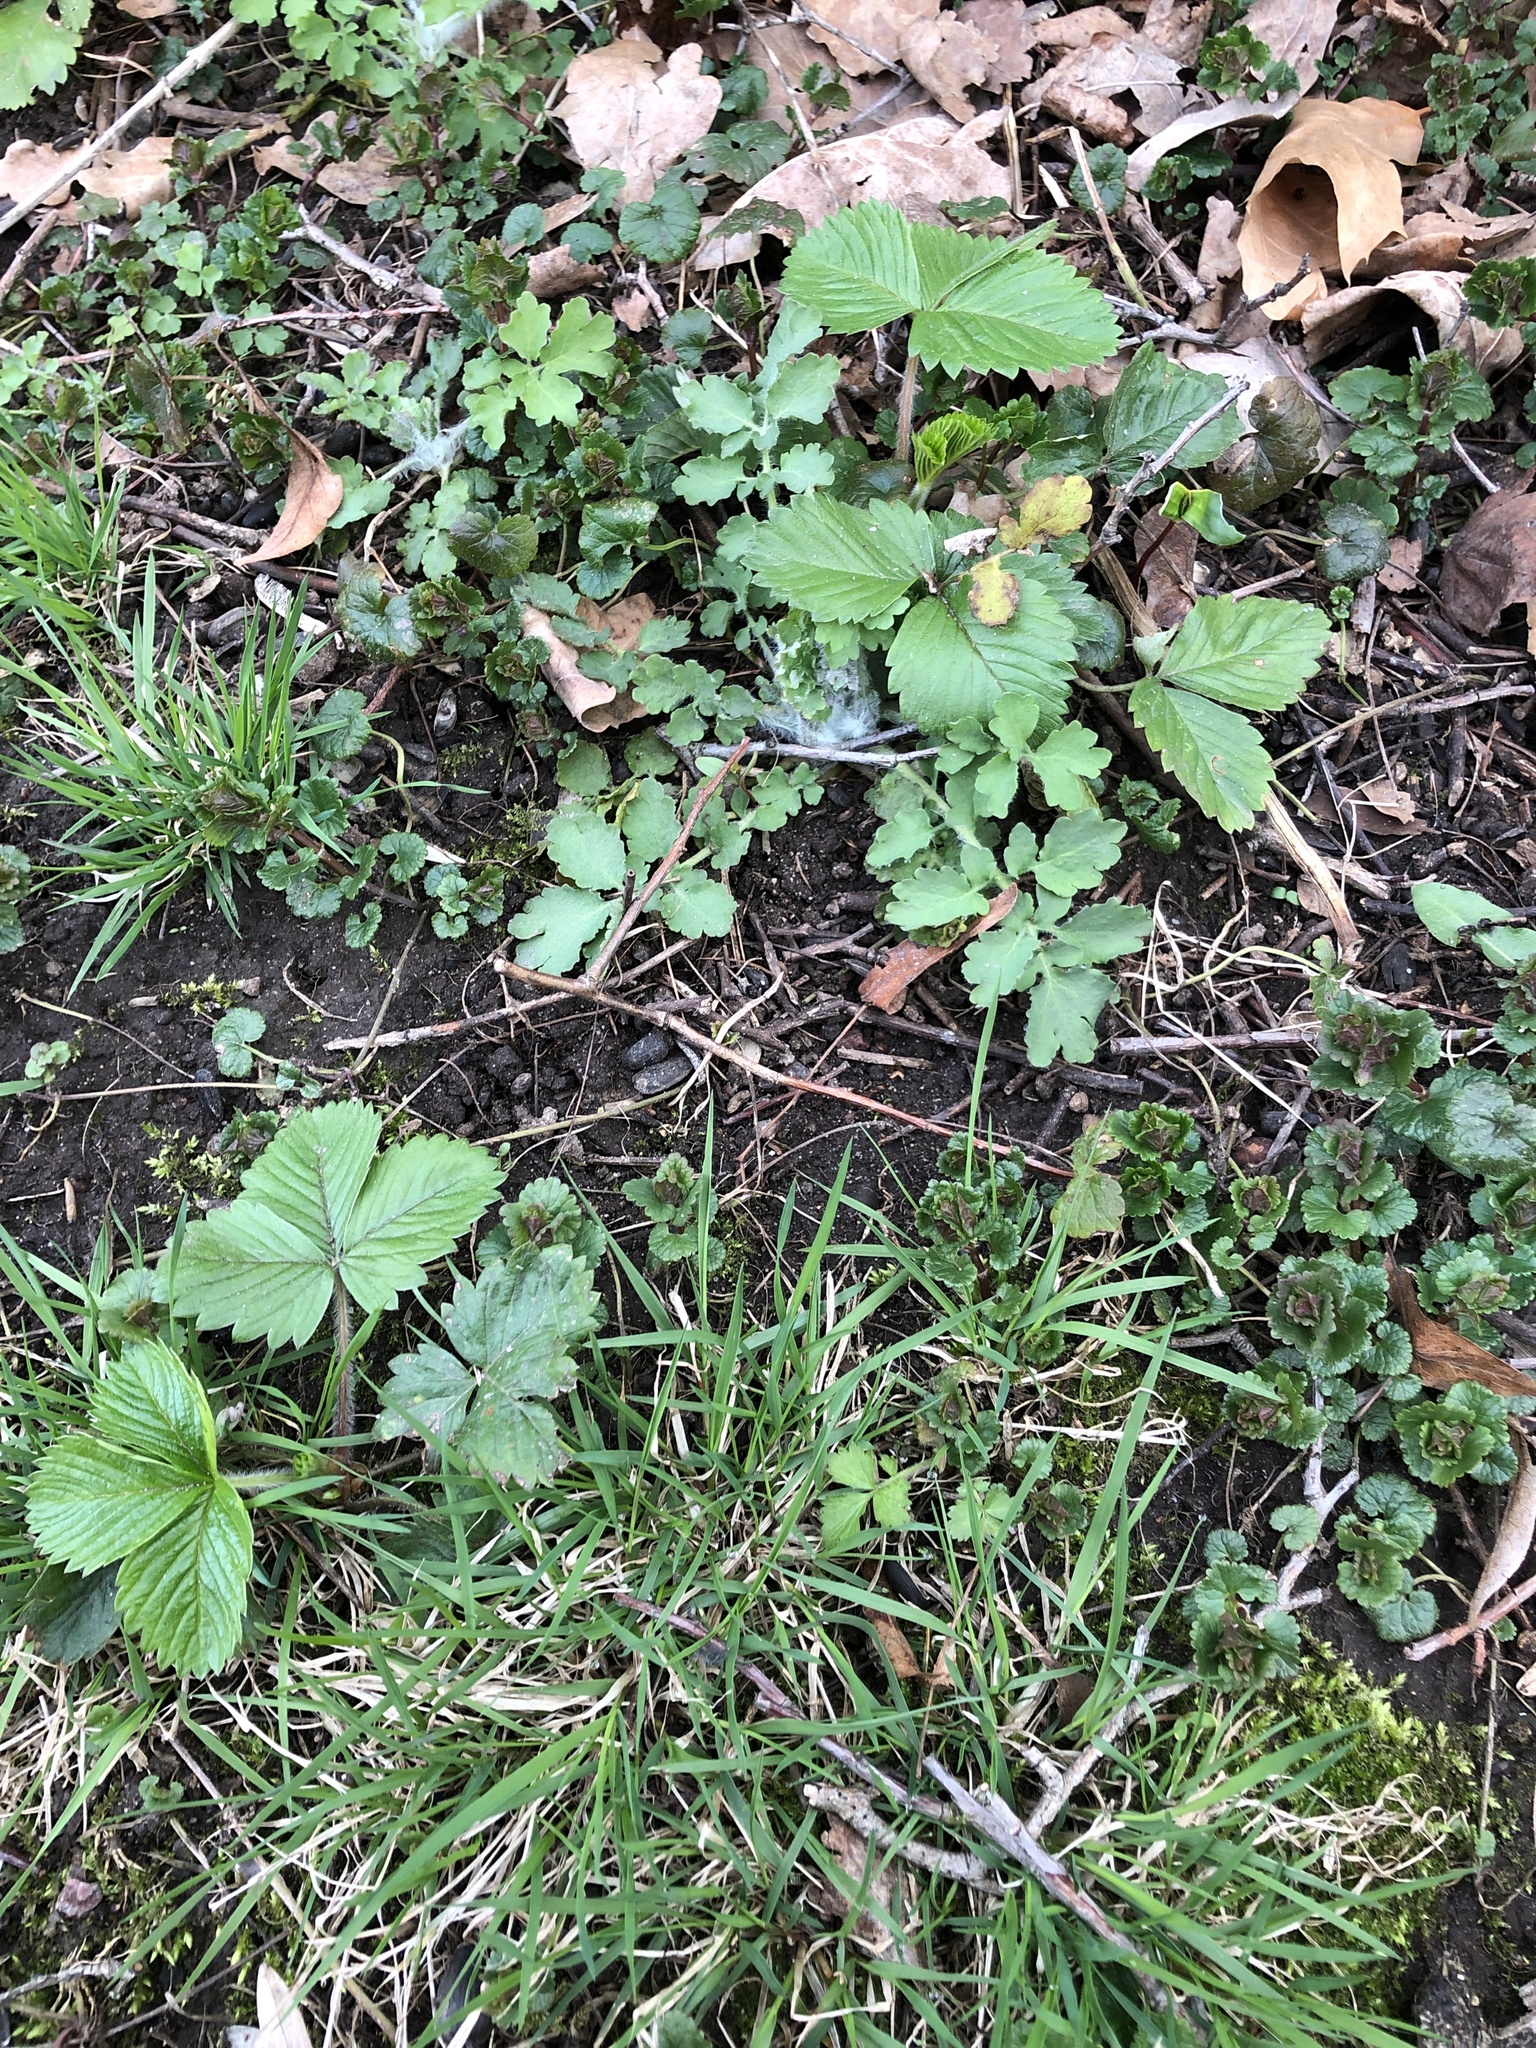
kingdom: Plantae
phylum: Tracheophyta
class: Magnoliopsida
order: Rosales
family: Rosaceae
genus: Fragaria
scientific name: Fragaria vesca
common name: Wild strawberry
